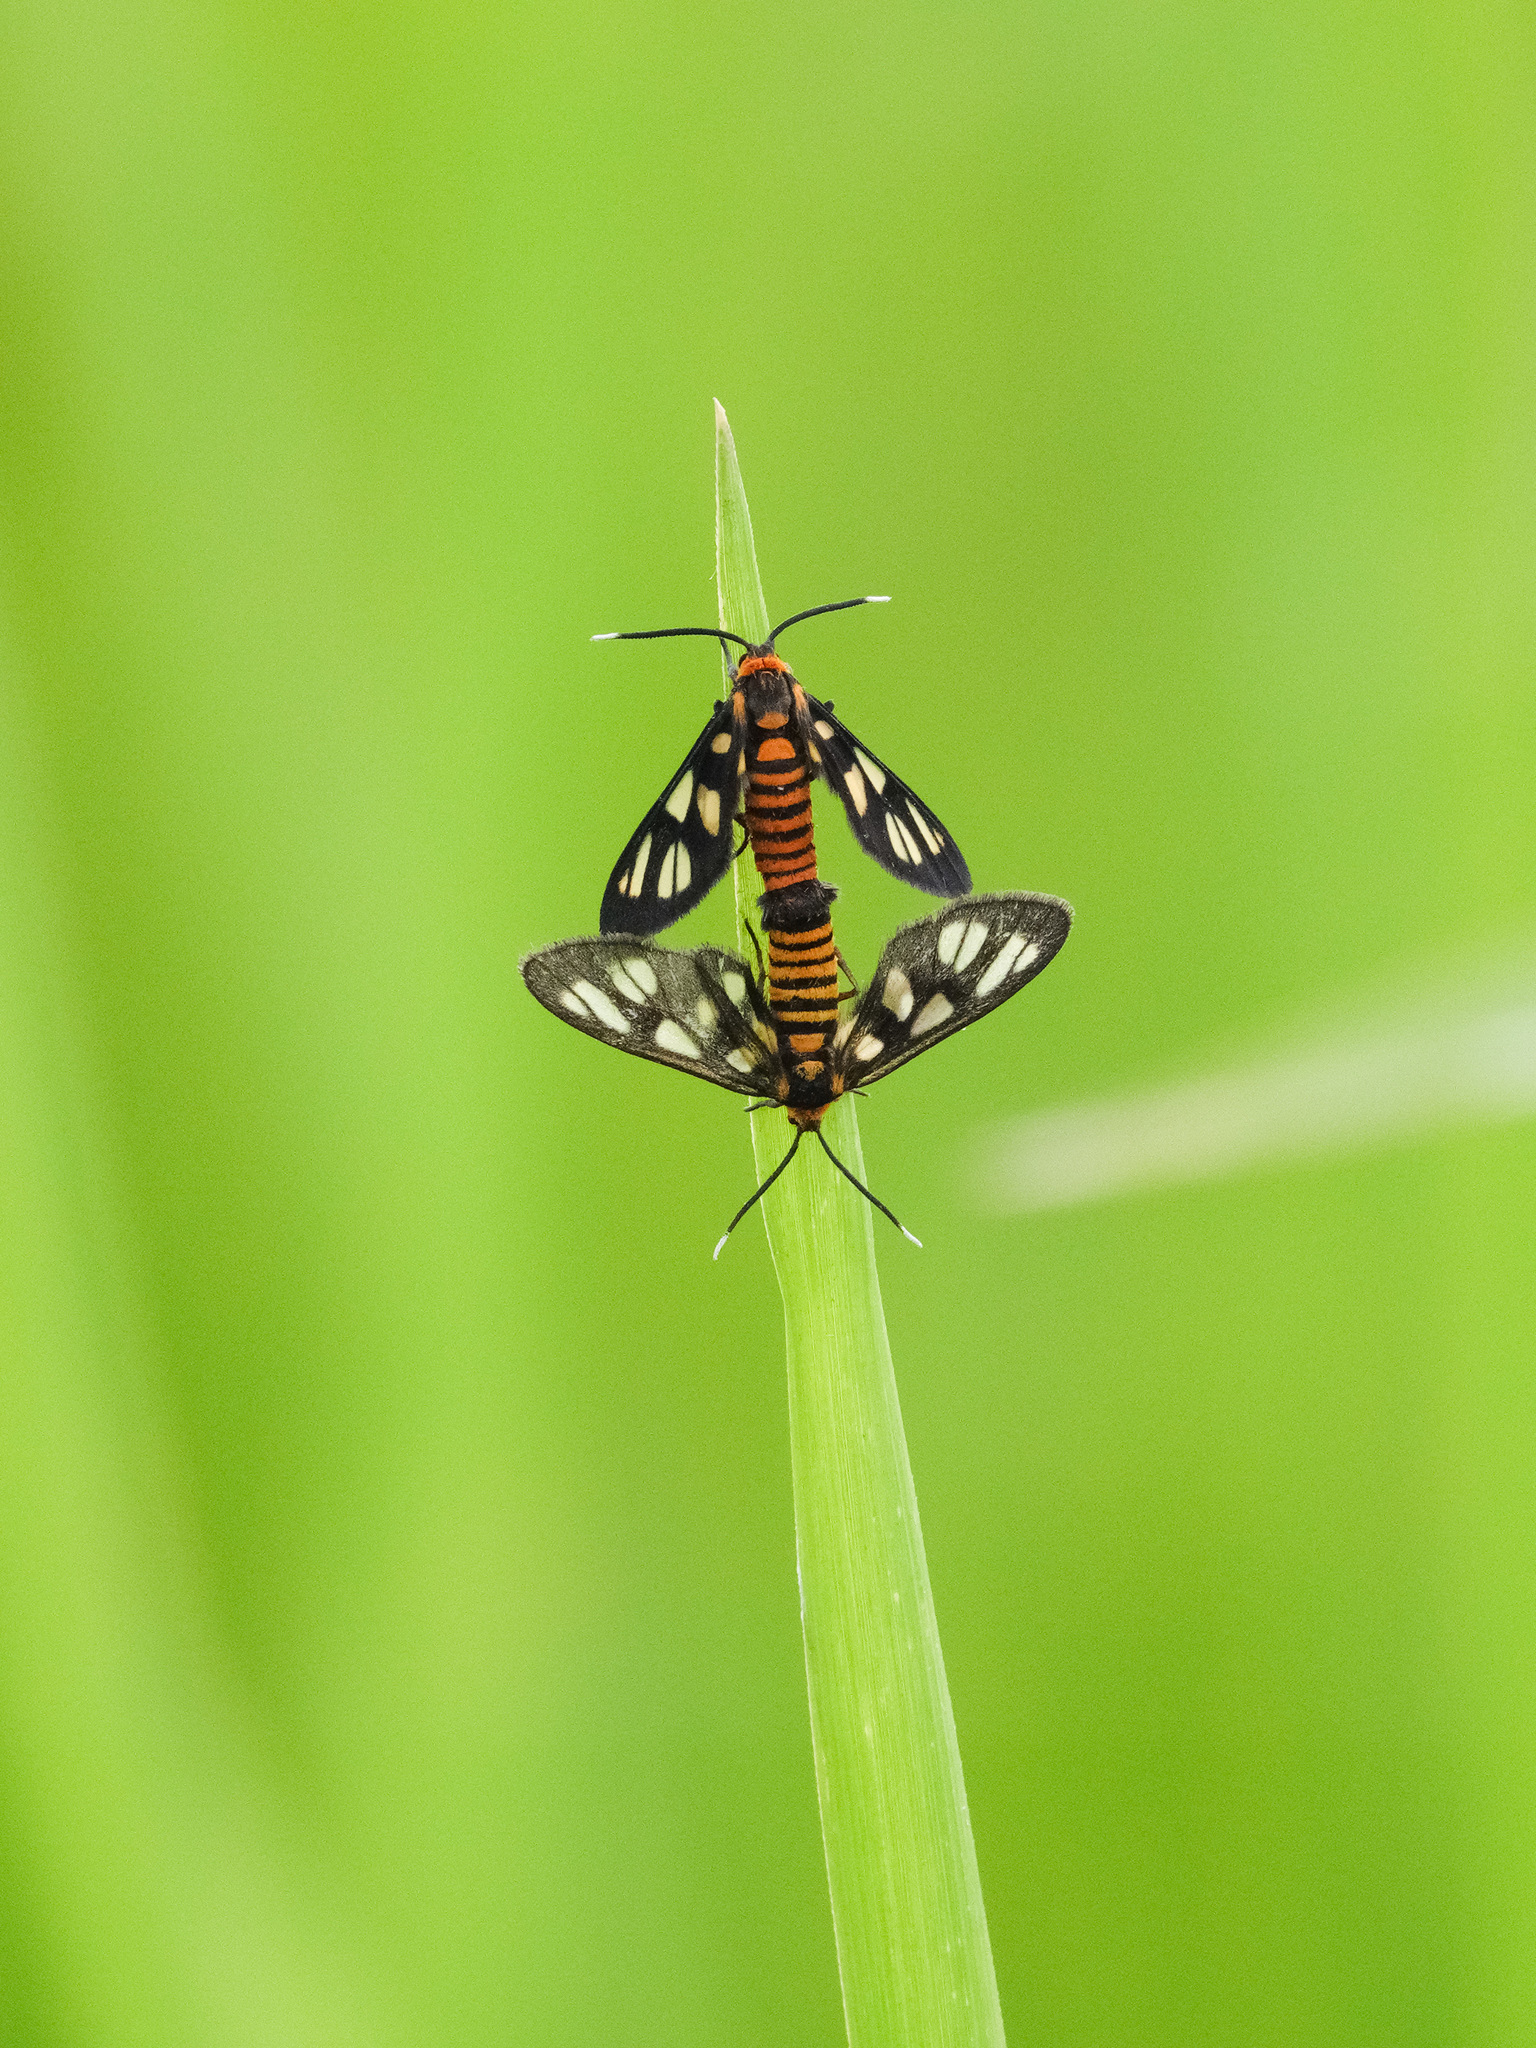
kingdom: Animalia
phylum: Arthropoda
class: Insecta
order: Lepidoptera
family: Erebidae
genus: Amata
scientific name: Amata huebneri
